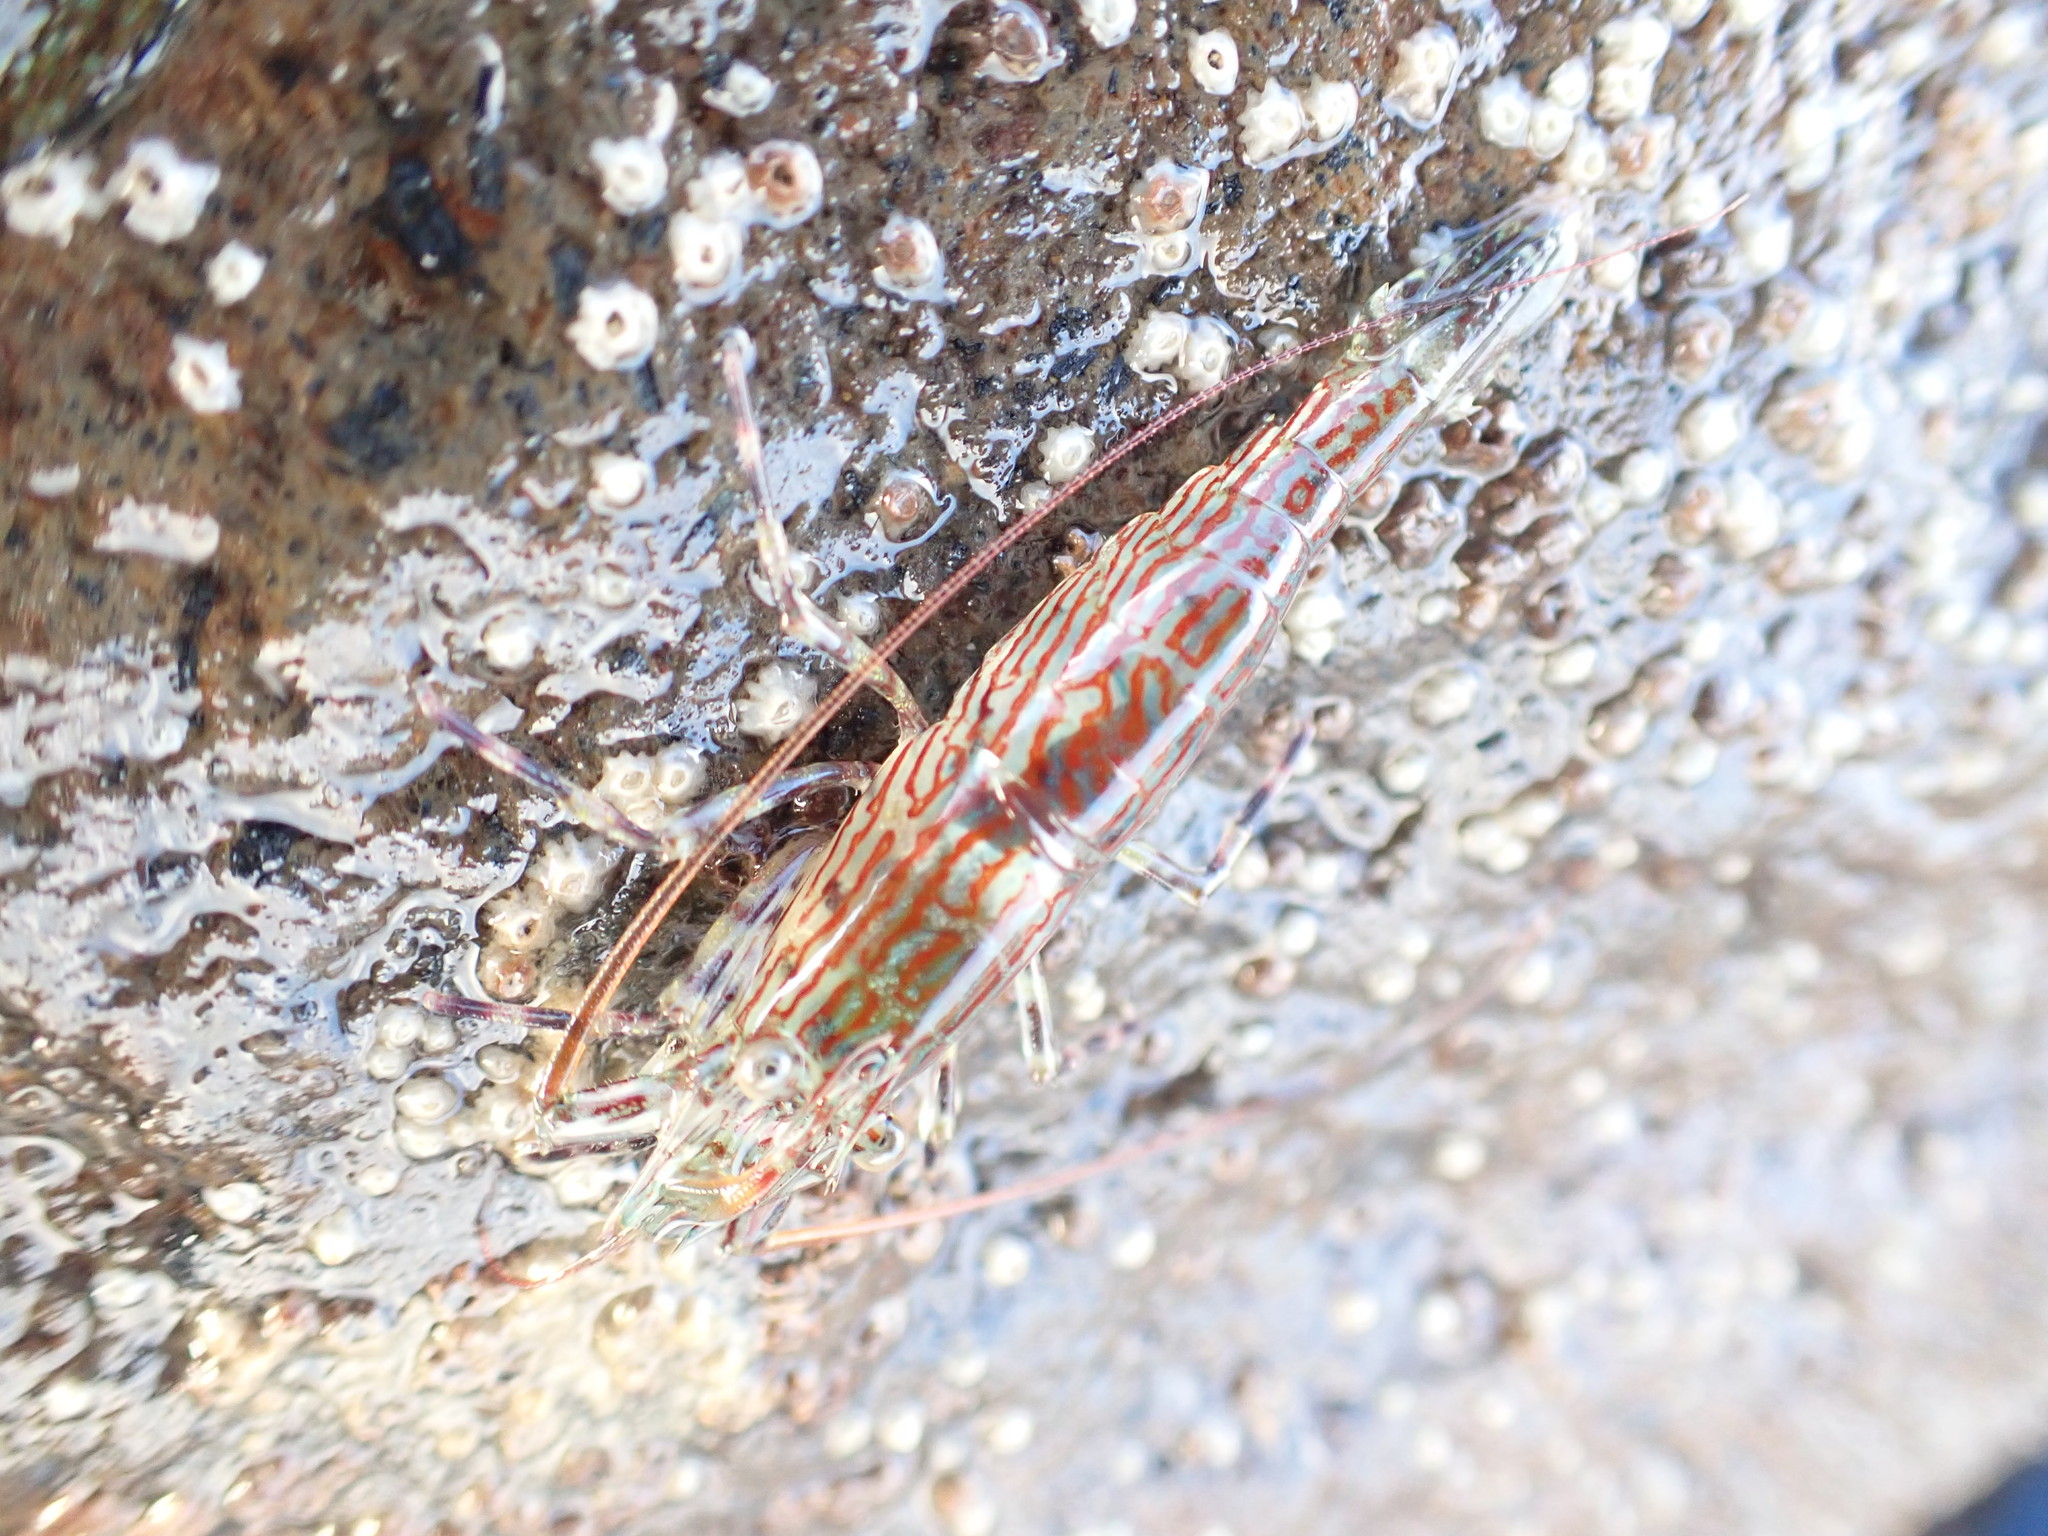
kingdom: Animalia
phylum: Arthropoda
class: Malacostraca
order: Decapoda
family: Hippolytidae
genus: Alope
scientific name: Alope spinifrons
